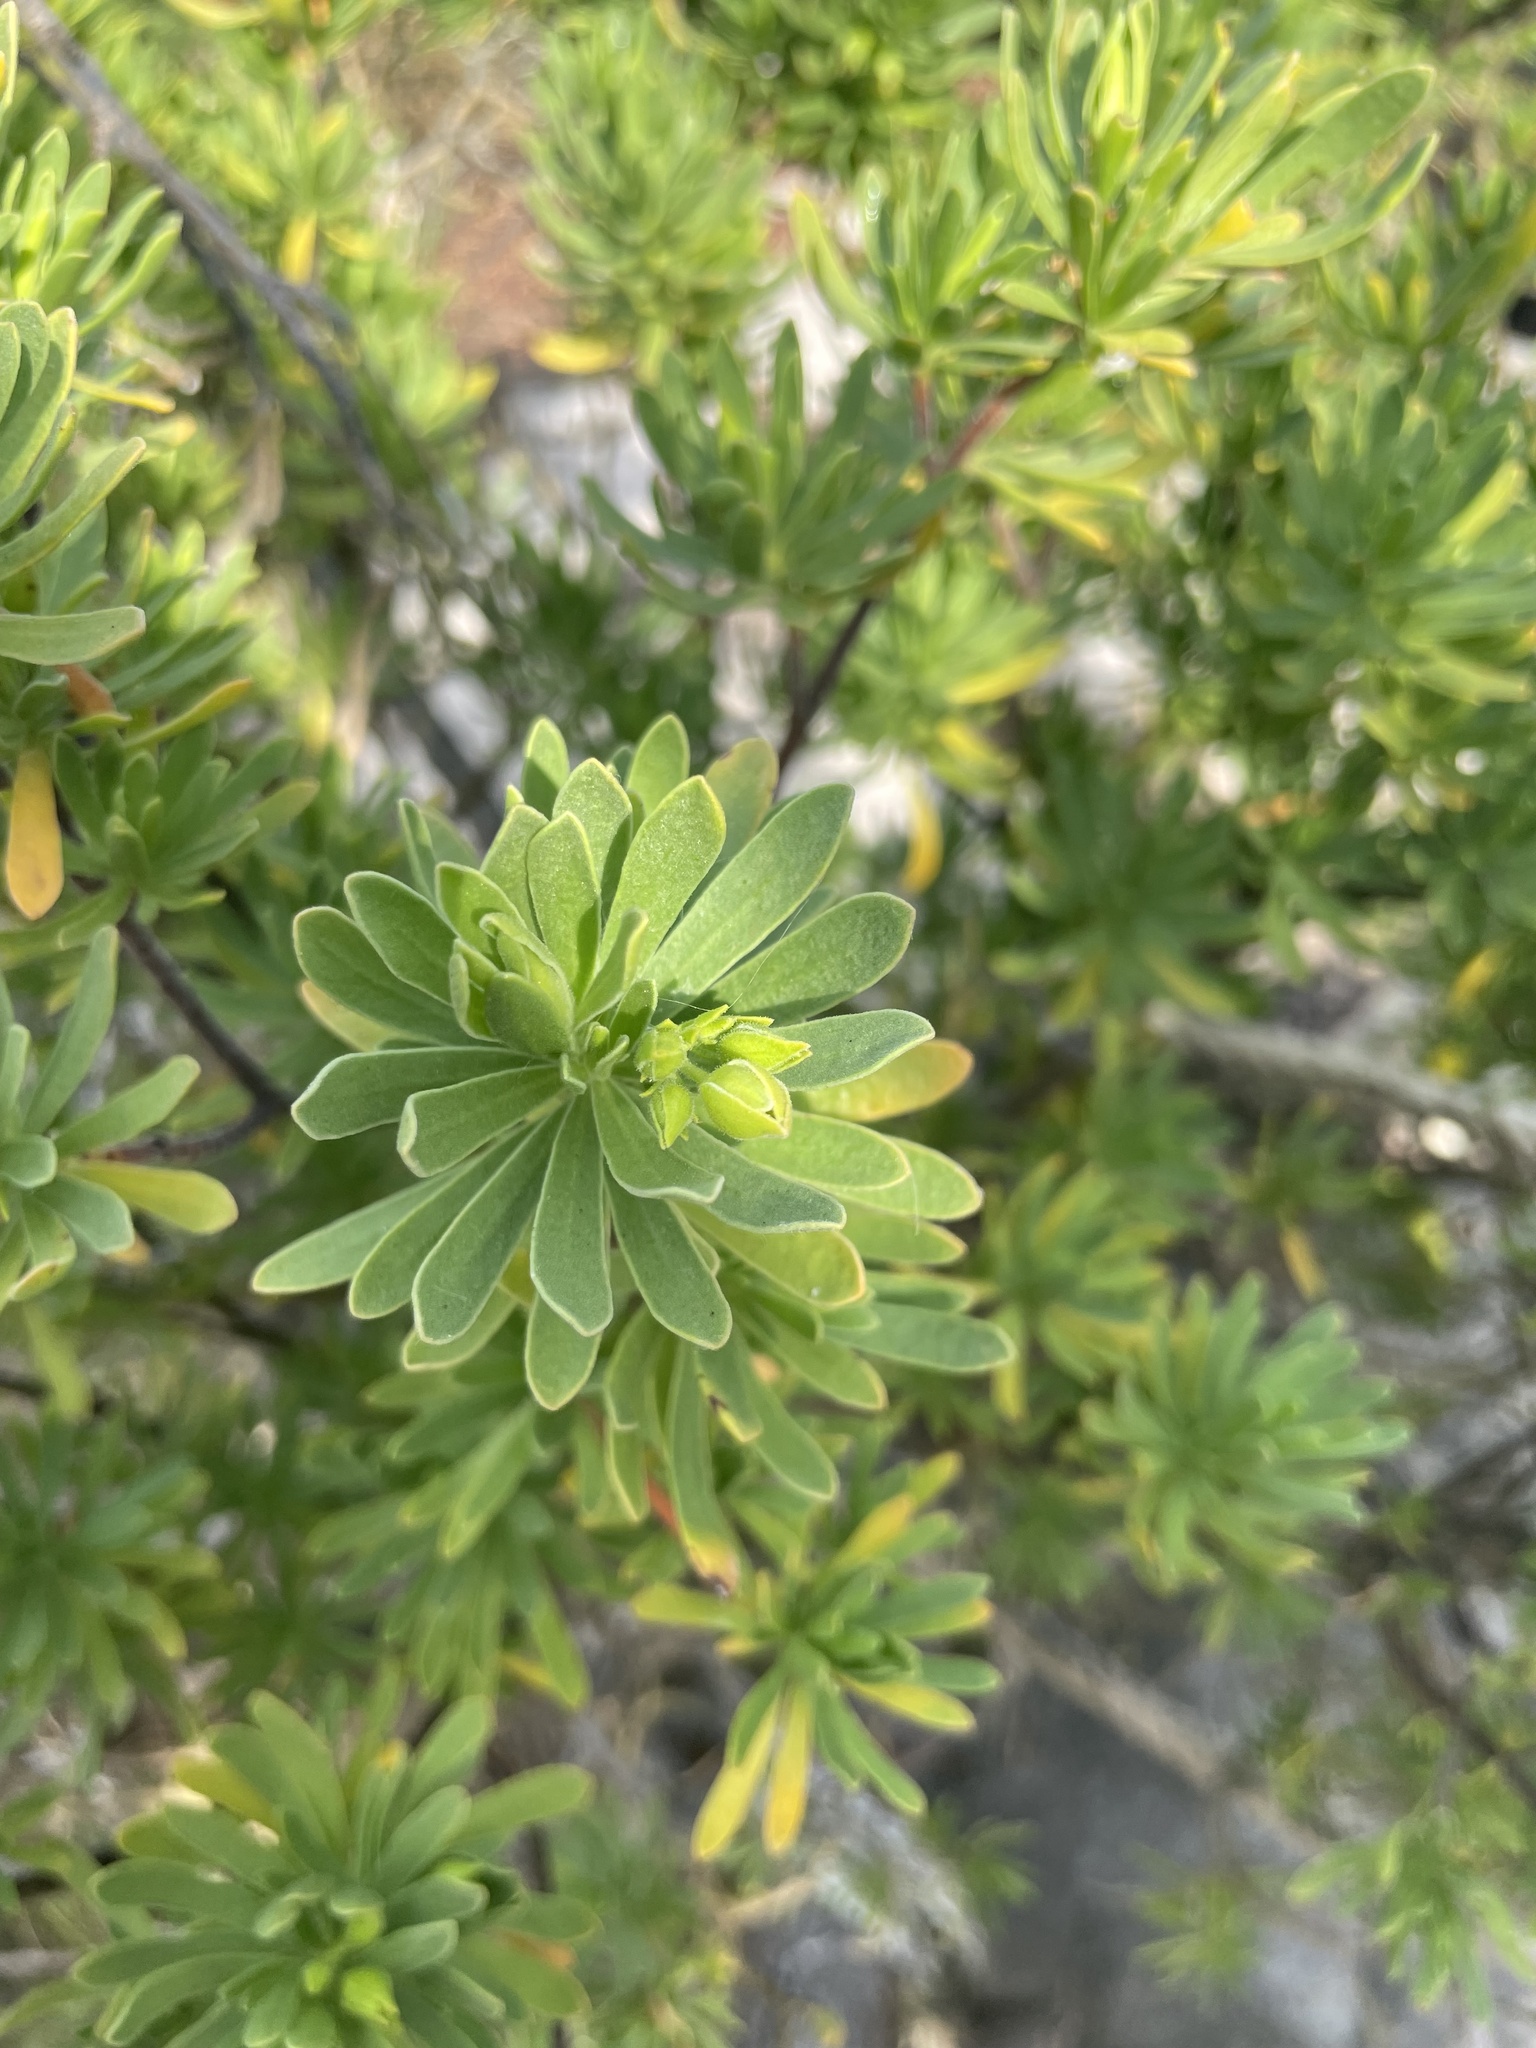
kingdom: Plantae
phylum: Tracheophyta
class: Magnoliopsida
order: Fabales
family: Surianaceae
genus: Suriana
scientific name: Suriana maritima
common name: Bay-cedar
